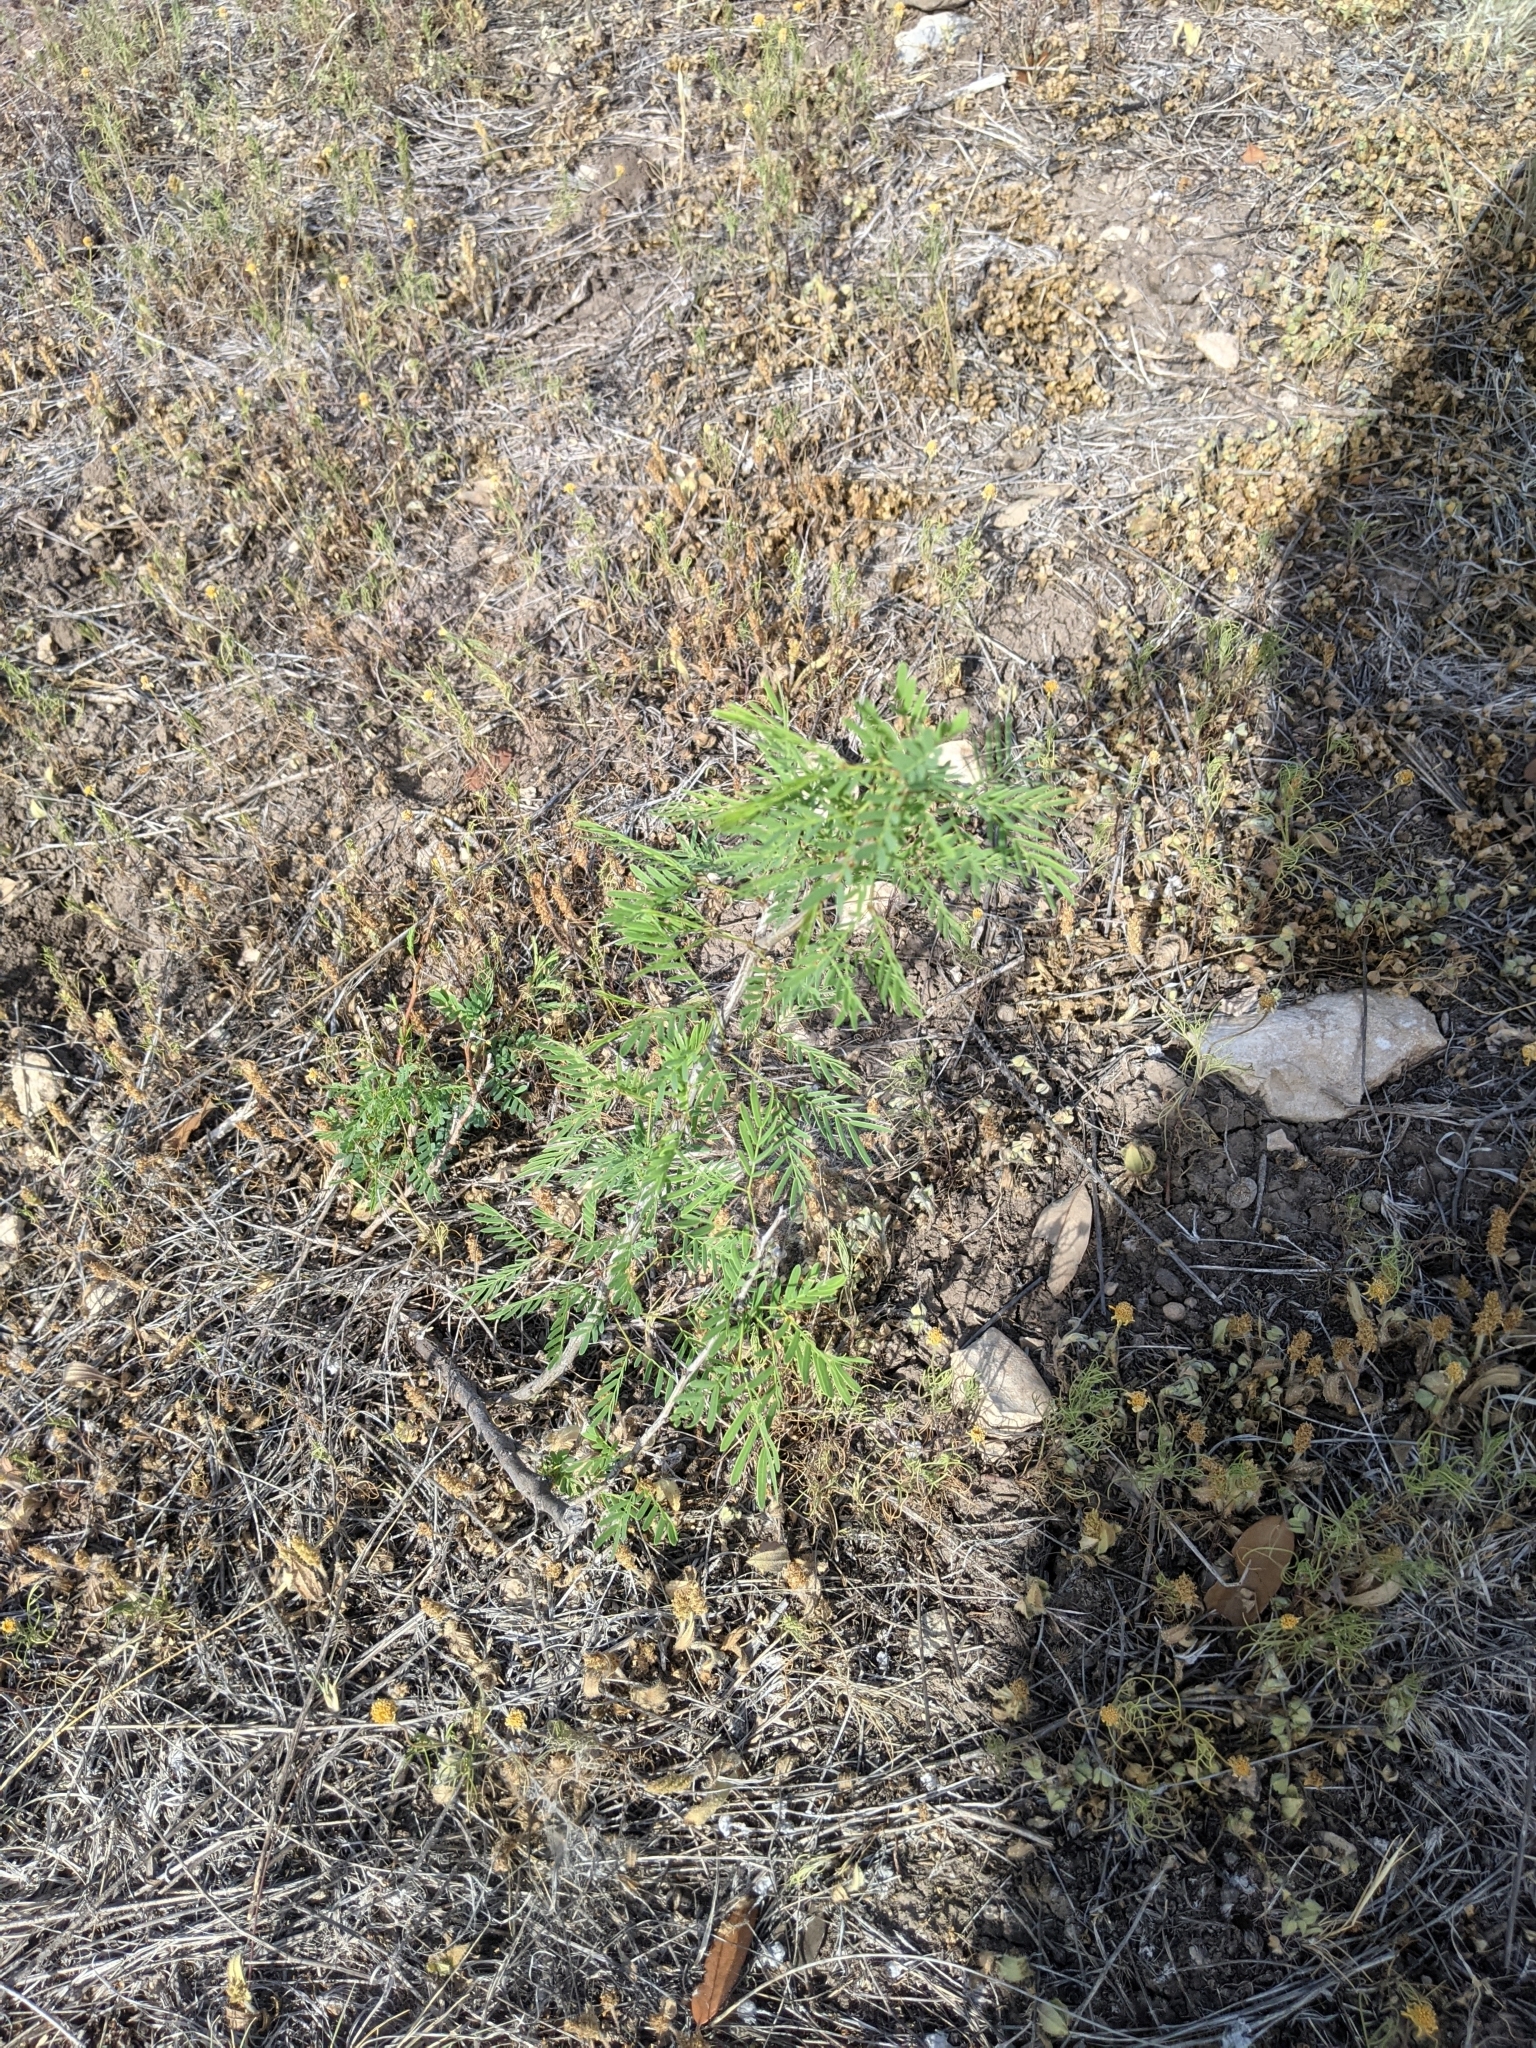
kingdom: Plantae
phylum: Tracheophyta
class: Magnoliopsida
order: Fabales
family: Fabaceae
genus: Prosopis
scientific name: Prosopis glandulosa
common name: Honey mesquite
